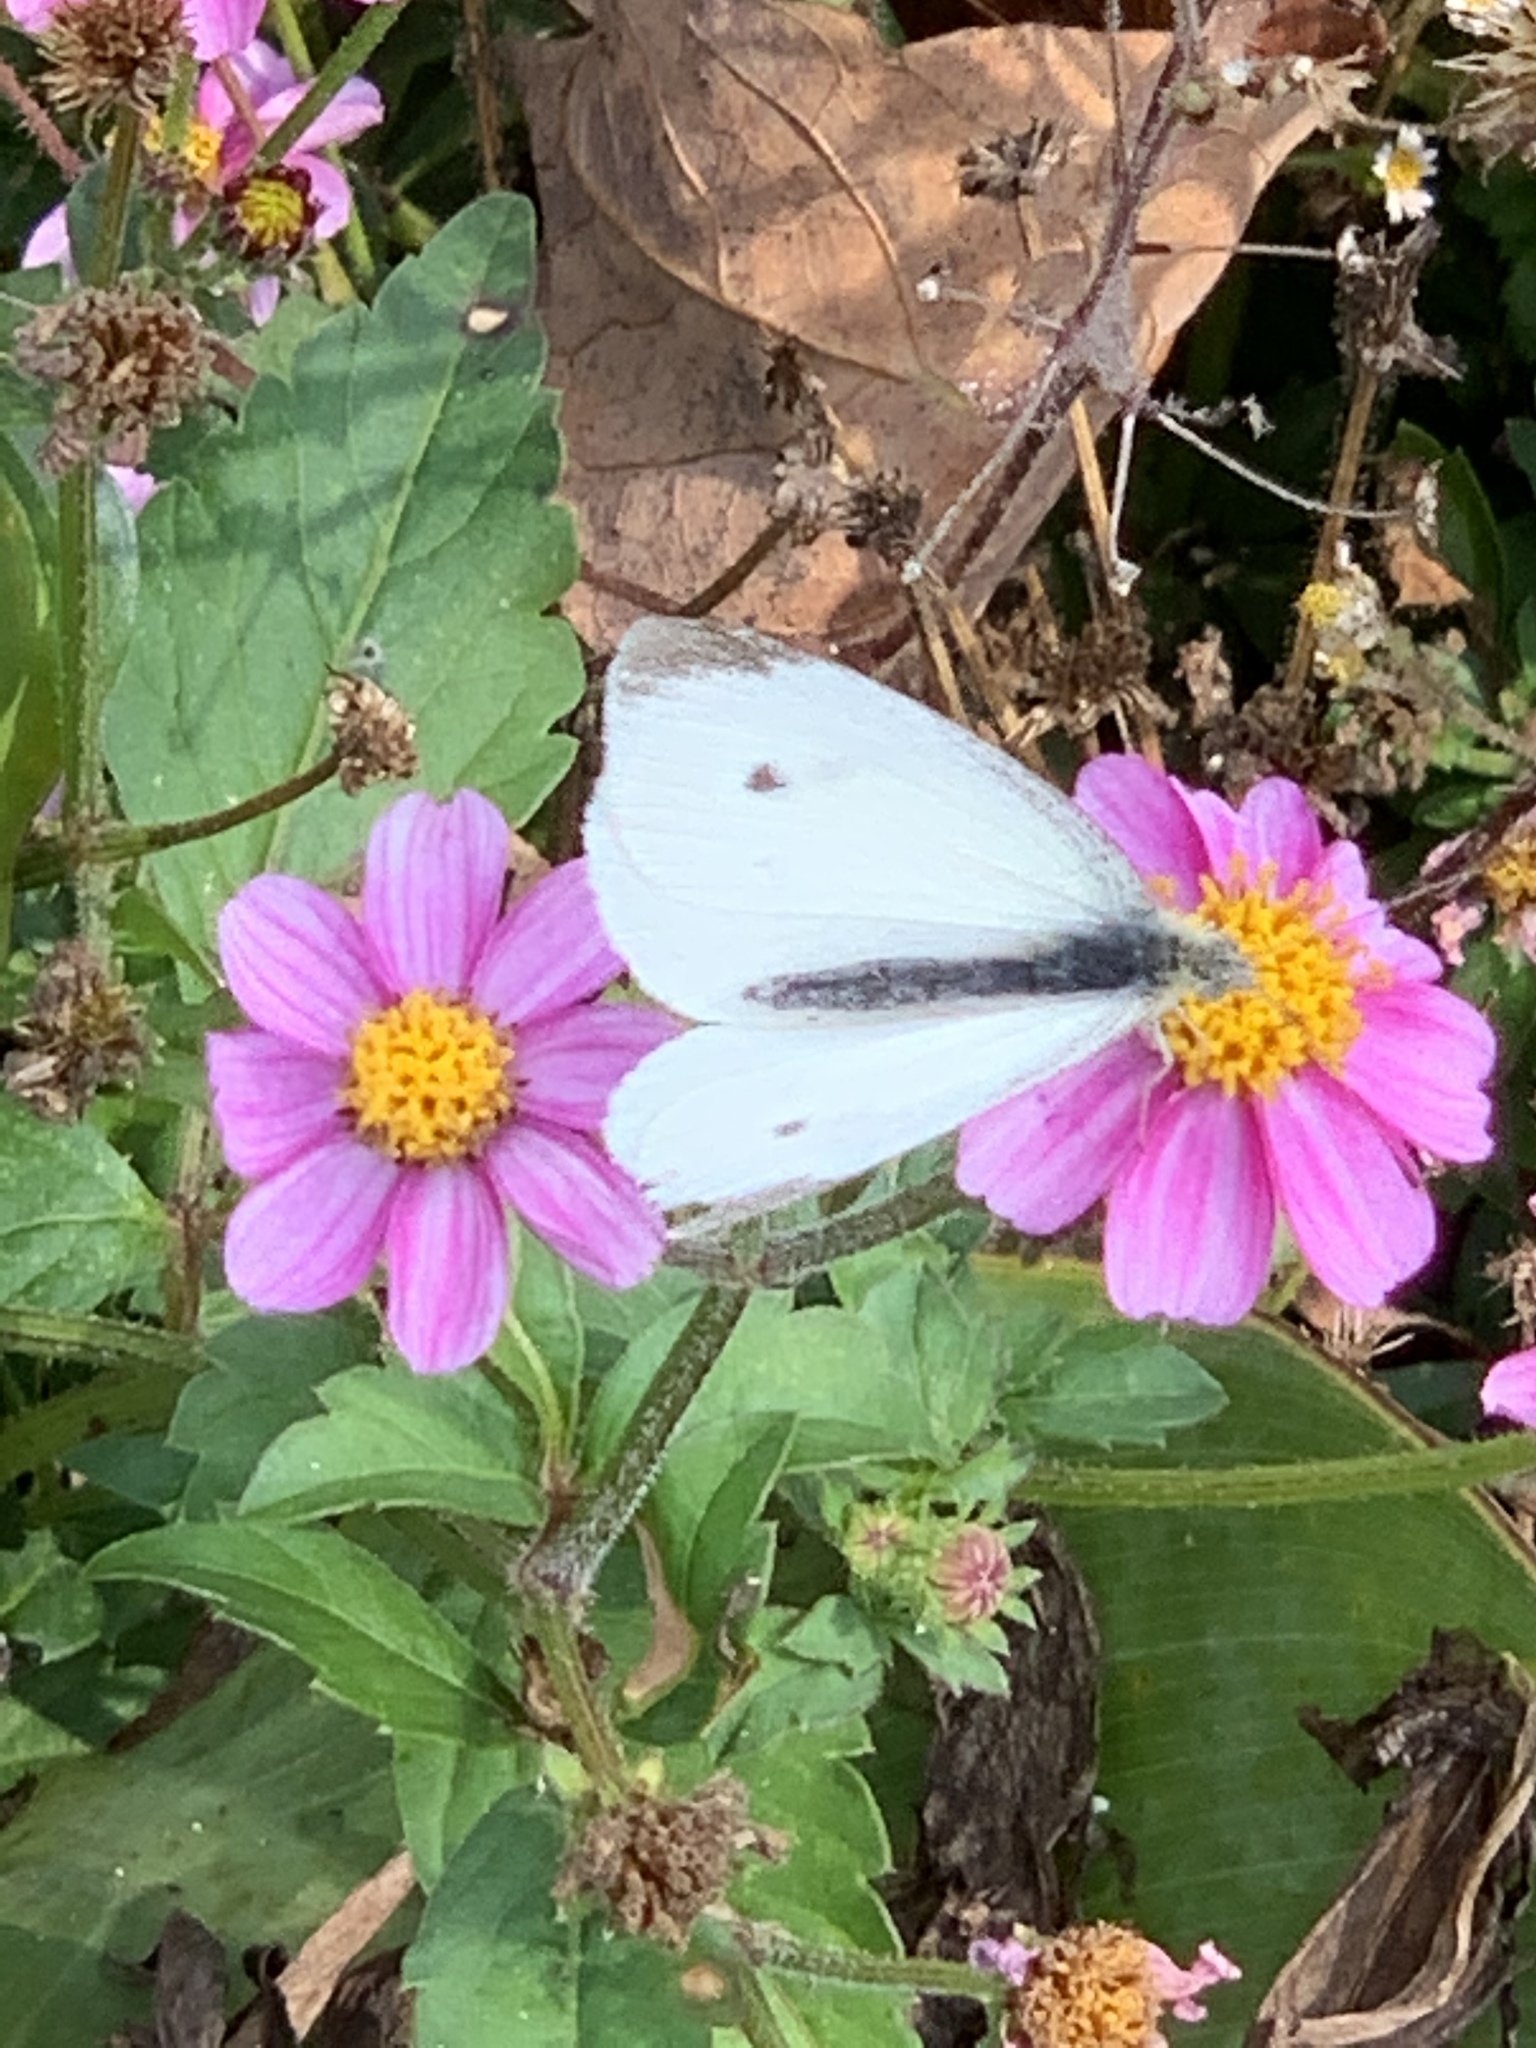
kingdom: Animalia
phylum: Arthropoda
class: Insecta
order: Lepidoptera
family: Pieridae
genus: Pieris
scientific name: Pieris rapae
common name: Small white
